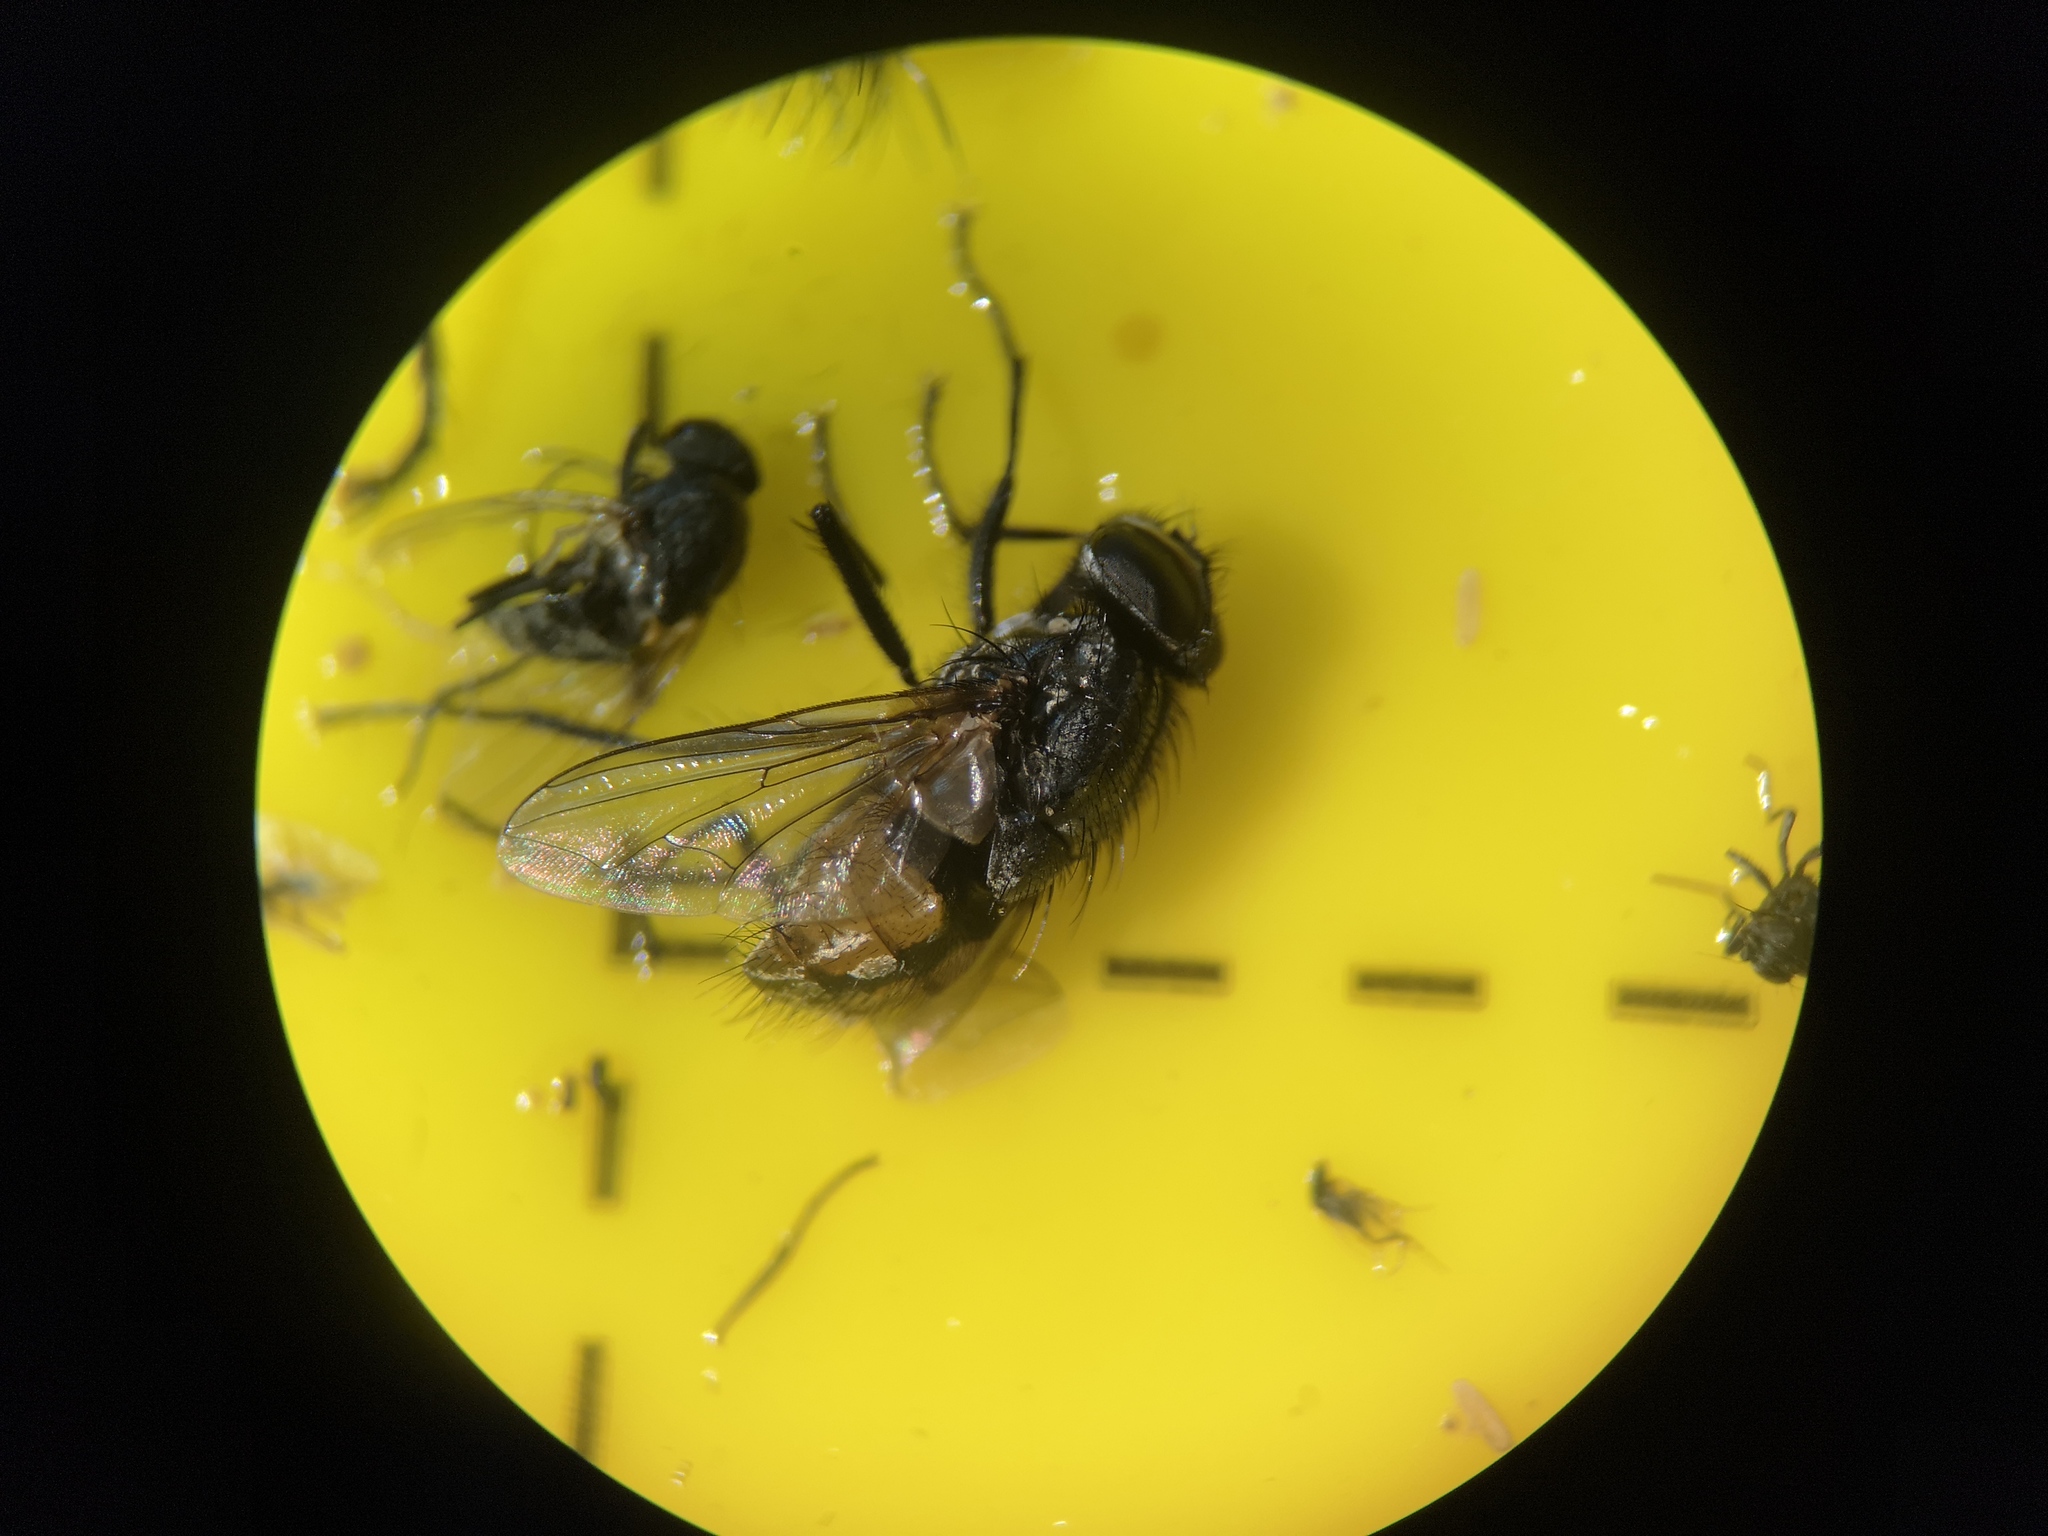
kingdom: Animalia
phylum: Arthropoda
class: Insecta
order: Diptera
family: Muscidae
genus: Musca
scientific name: Musca autumnalis
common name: Face fly
